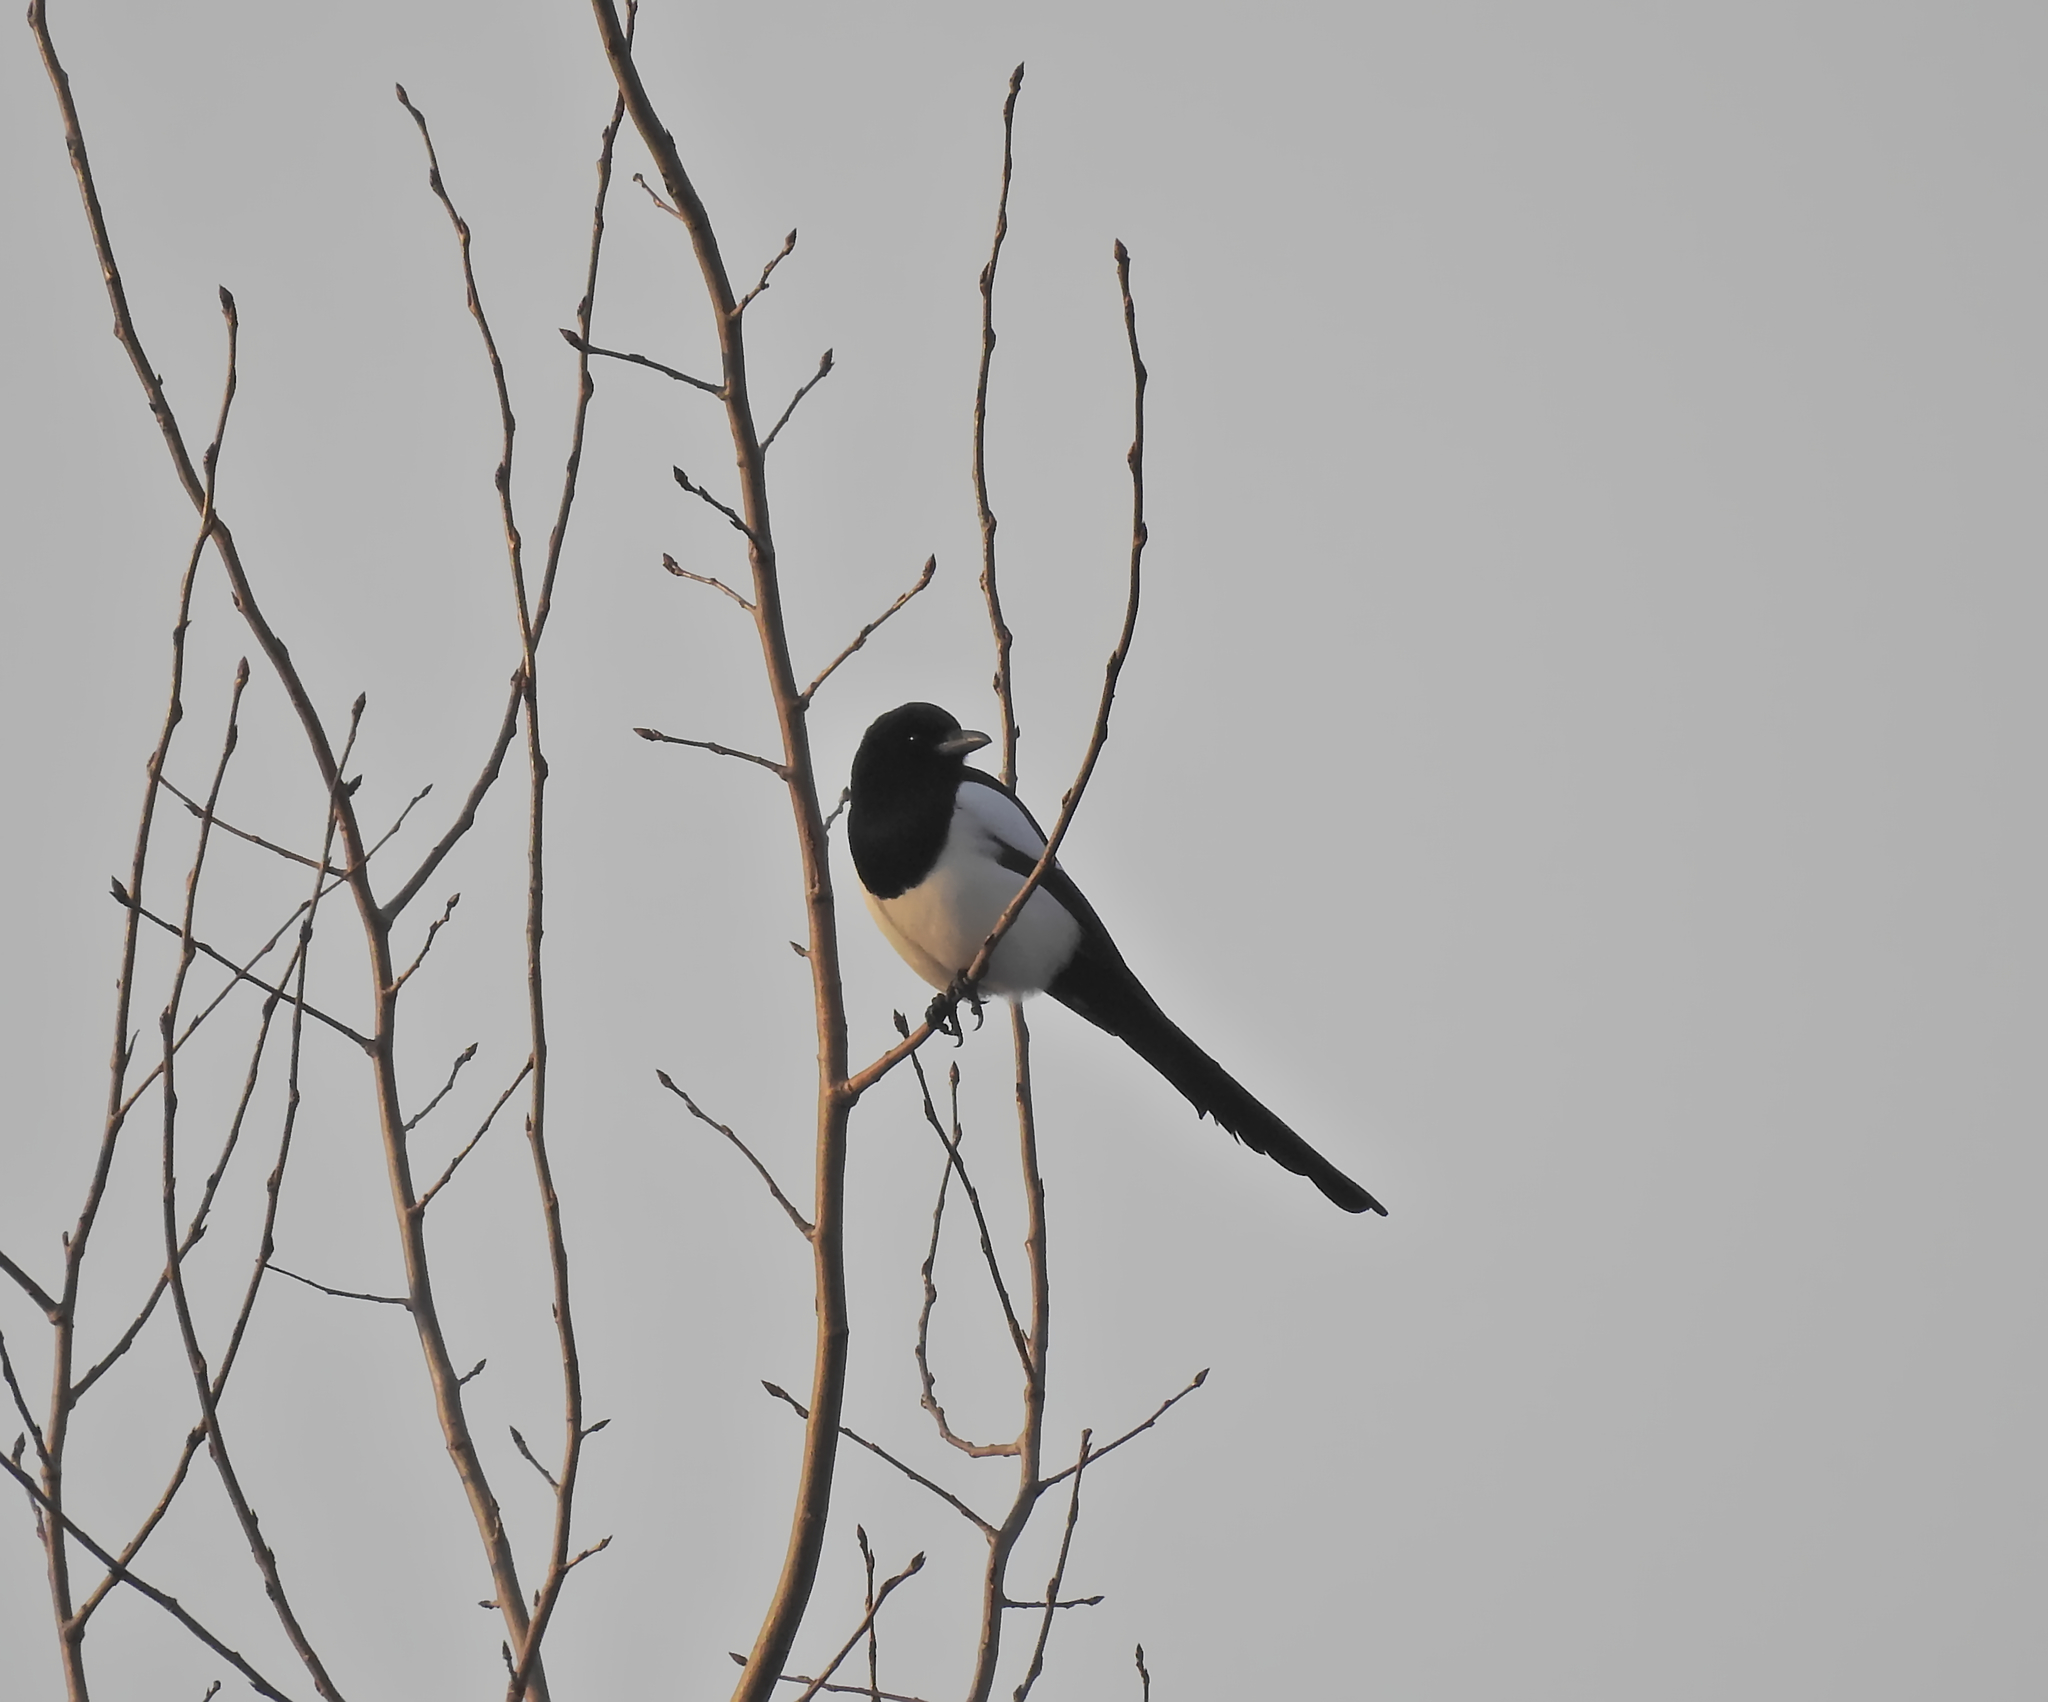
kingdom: Animalia
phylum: Chordata
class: Aves
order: Passeriformes
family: Corvidae
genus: Pica
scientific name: Pica pica
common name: Eurasian magpie
